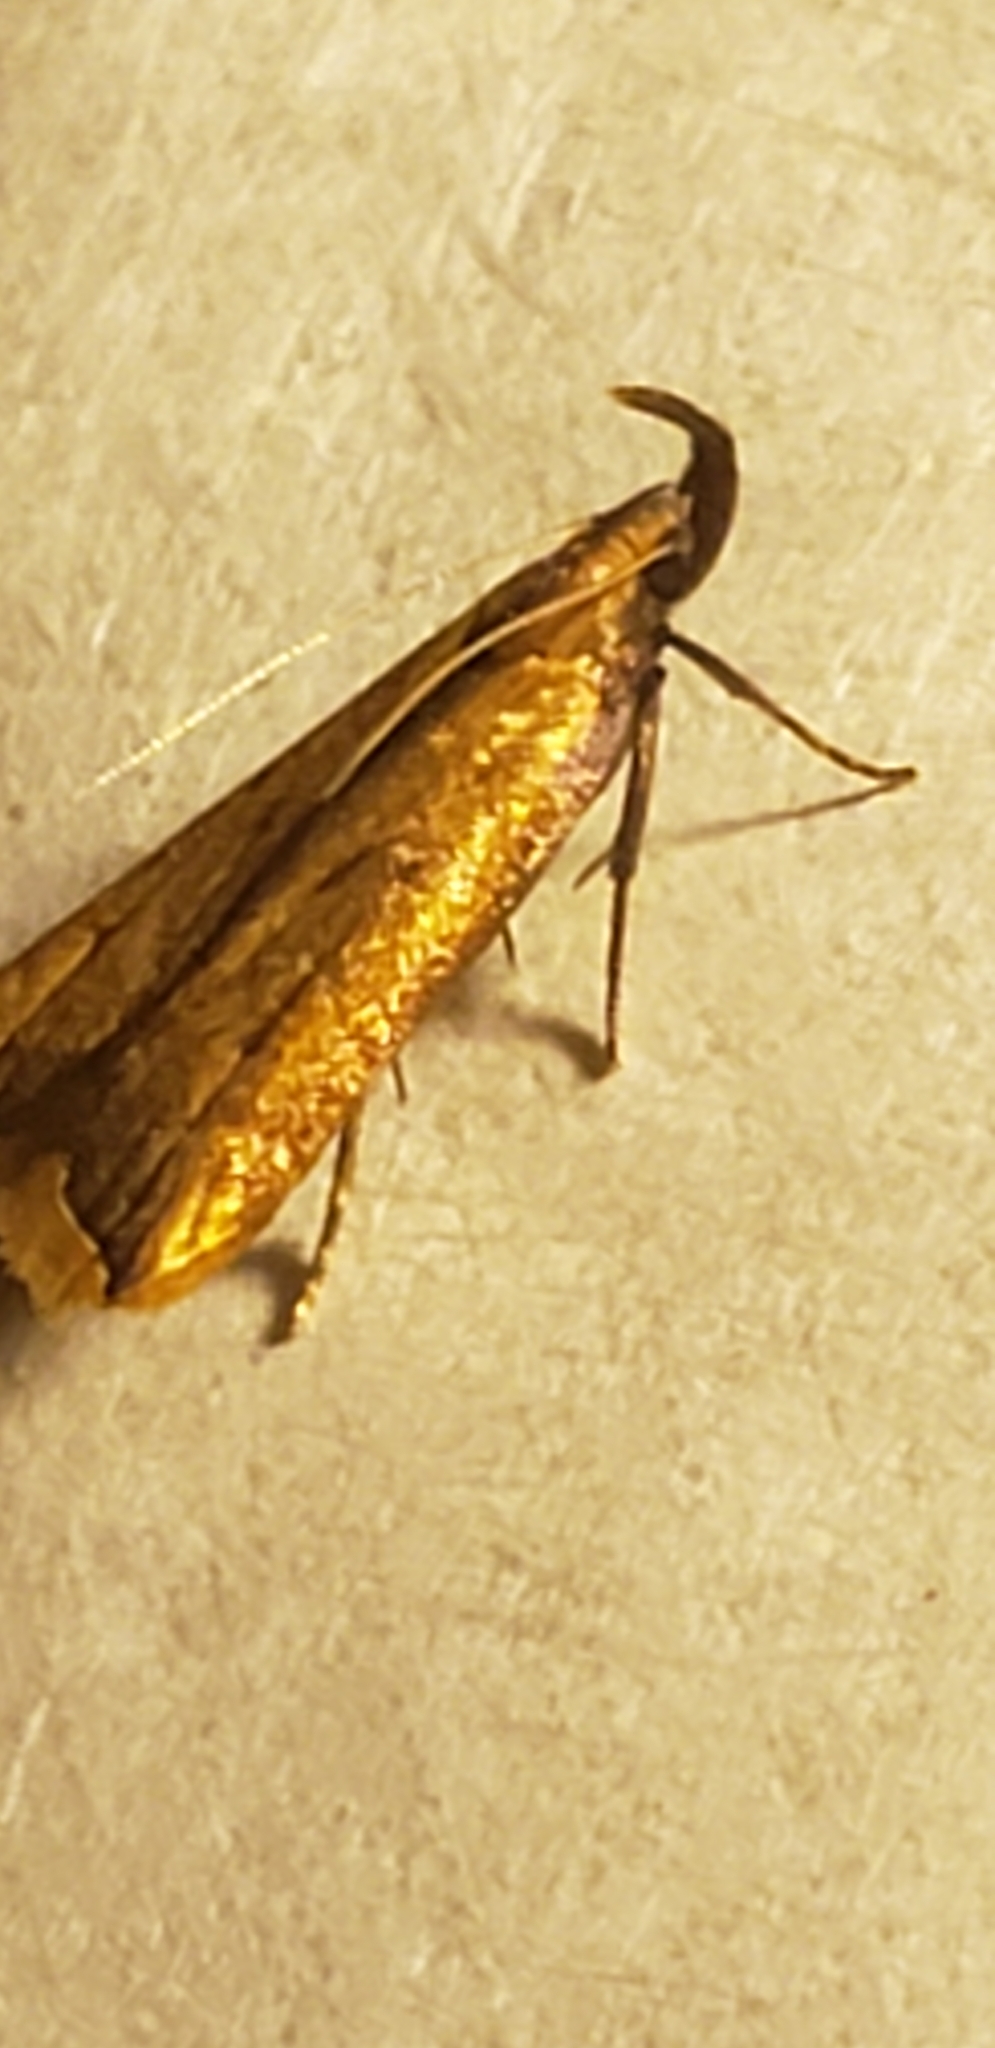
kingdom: Animalia
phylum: Arthropoda
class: Insecta
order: Lepidoptera
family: Gelechiidae
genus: Dichomeris
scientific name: Dichomeris heriguronis
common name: Black-edged dichomeris moth
